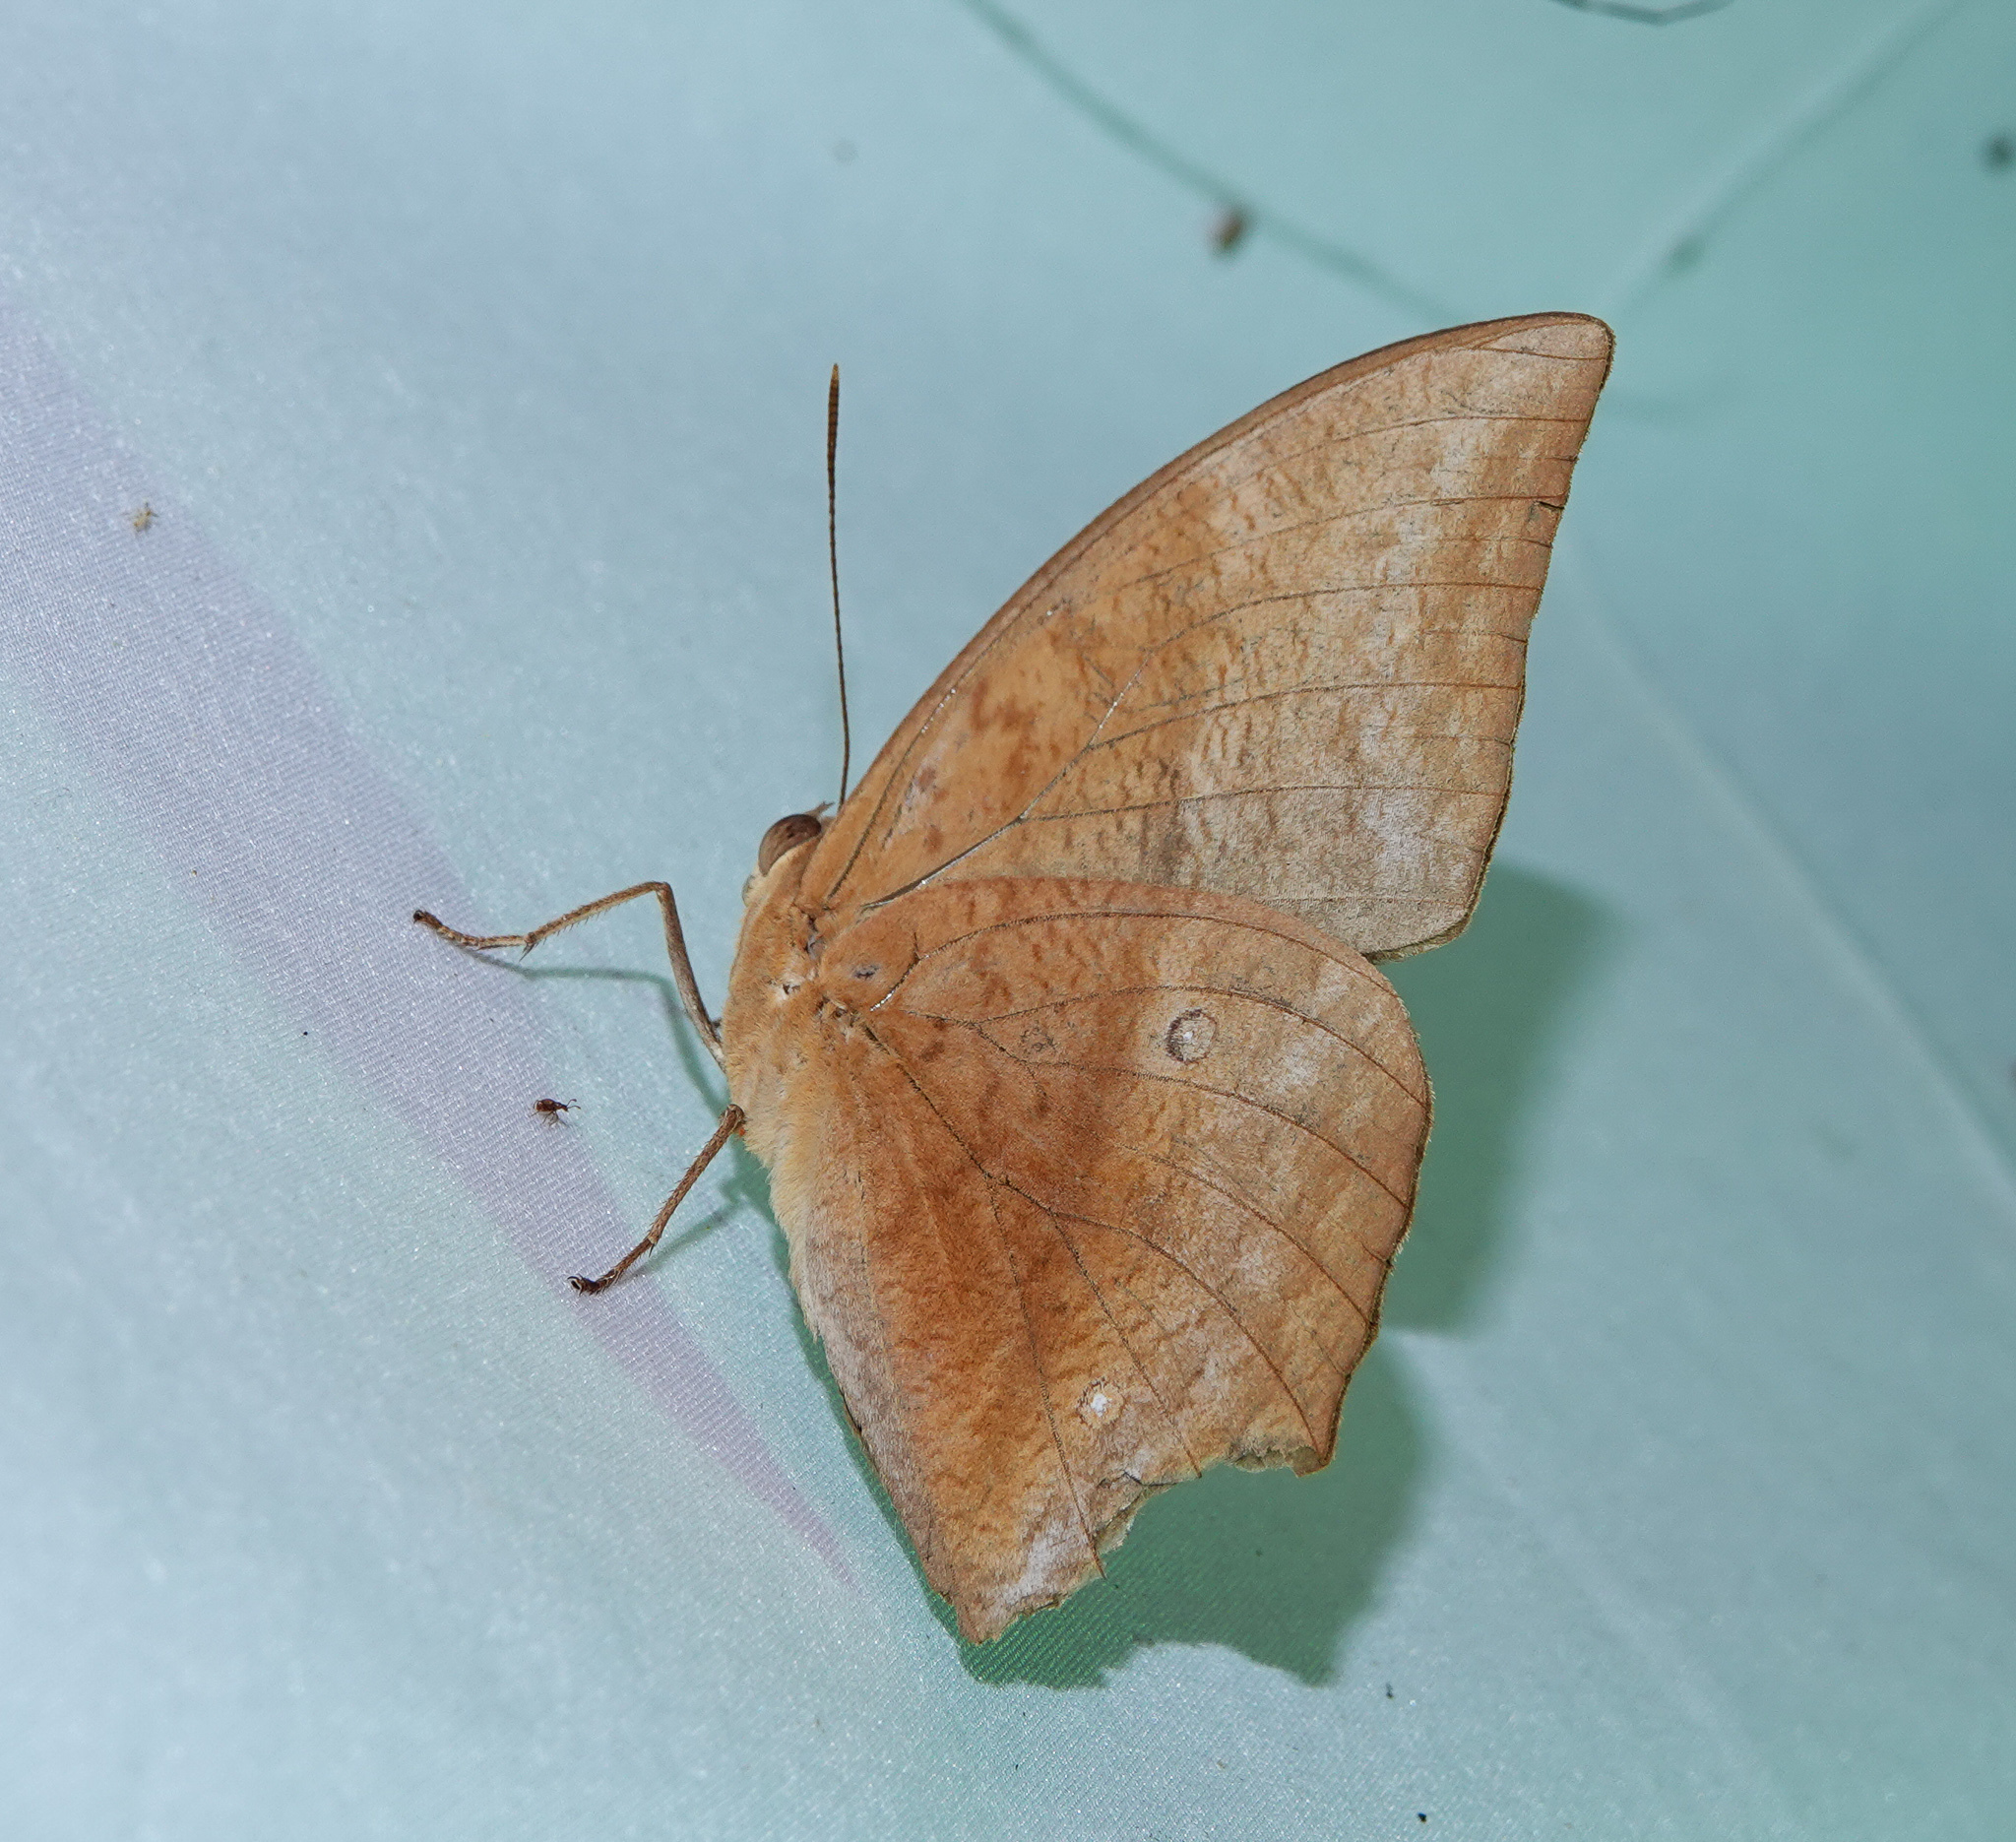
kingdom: Animalia
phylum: Arthropoda
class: Insecta
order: Lepidoptera
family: Nymphalidae
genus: Discophora
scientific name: Discophora sondaica
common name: Common duffer
